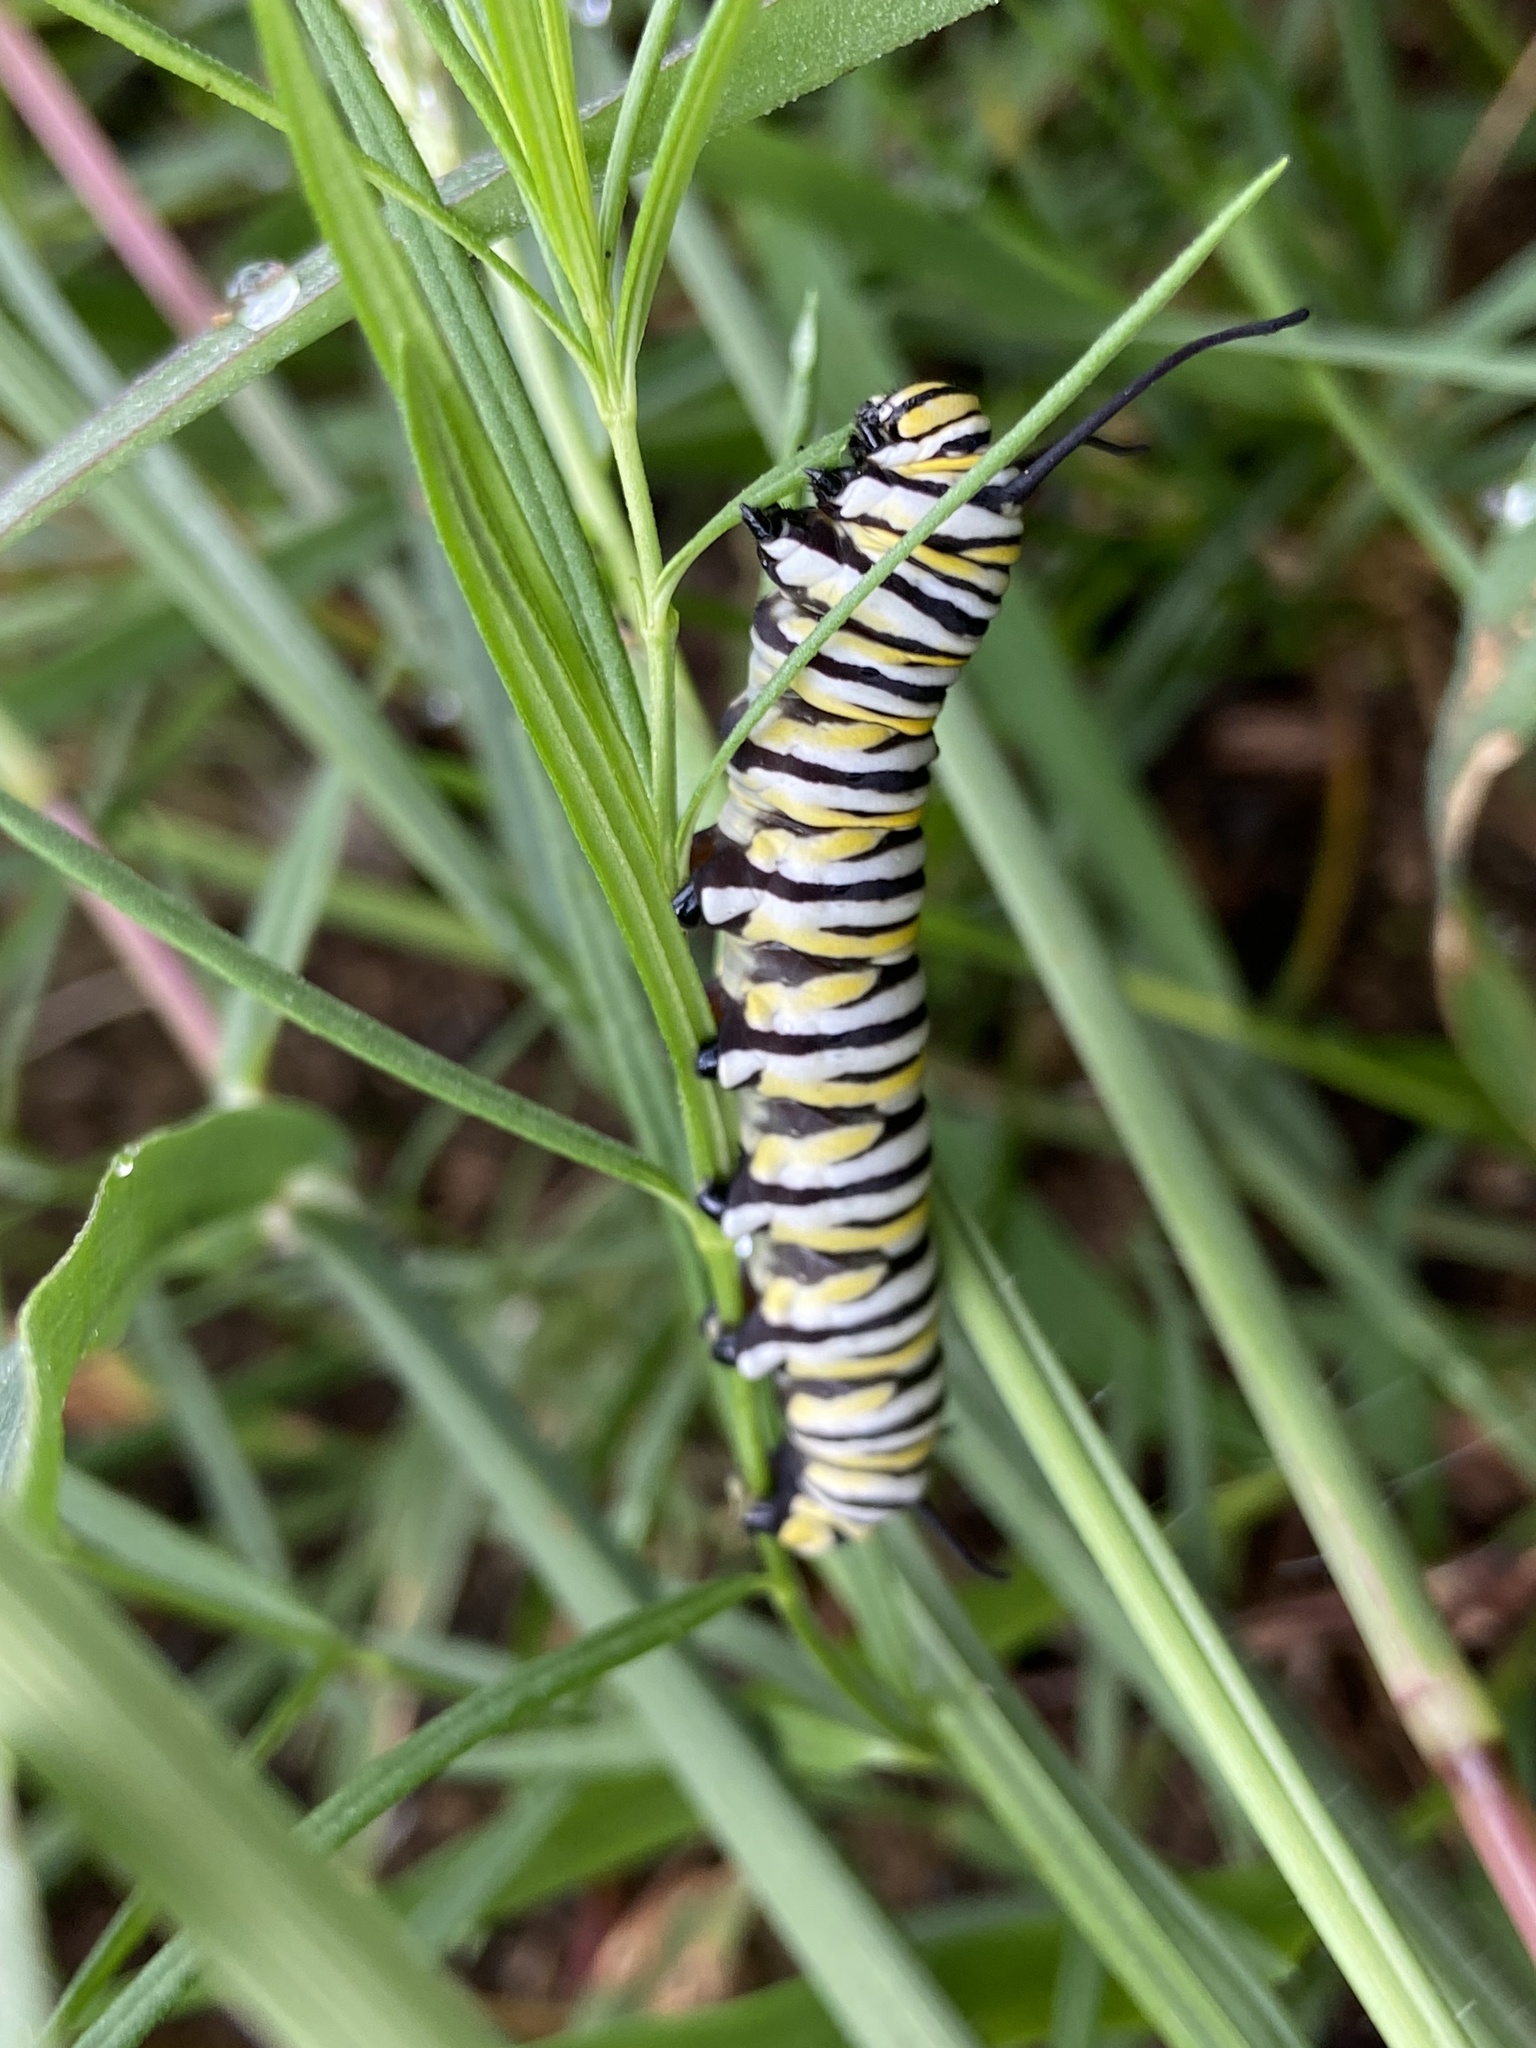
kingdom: Plantae
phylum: Tracheophyta
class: Magnoliopsida
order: Gentianales
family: Apocynaceae
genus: Asclepias
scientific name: Asclepias verticillata
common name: Eastern whorled milkweed
